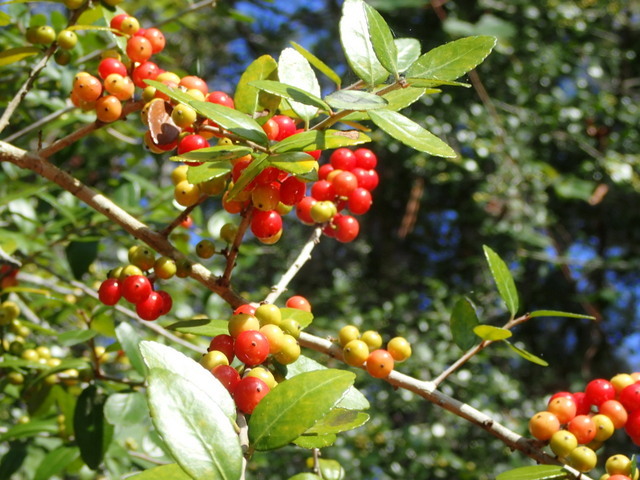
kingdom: Plantae
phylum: Tracheophyta
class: Magnoliopsida
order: Aquifoliales
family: Aquifoliaceae
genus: Ilex
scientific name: Ilex vomitoria
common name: Yaupon holly
